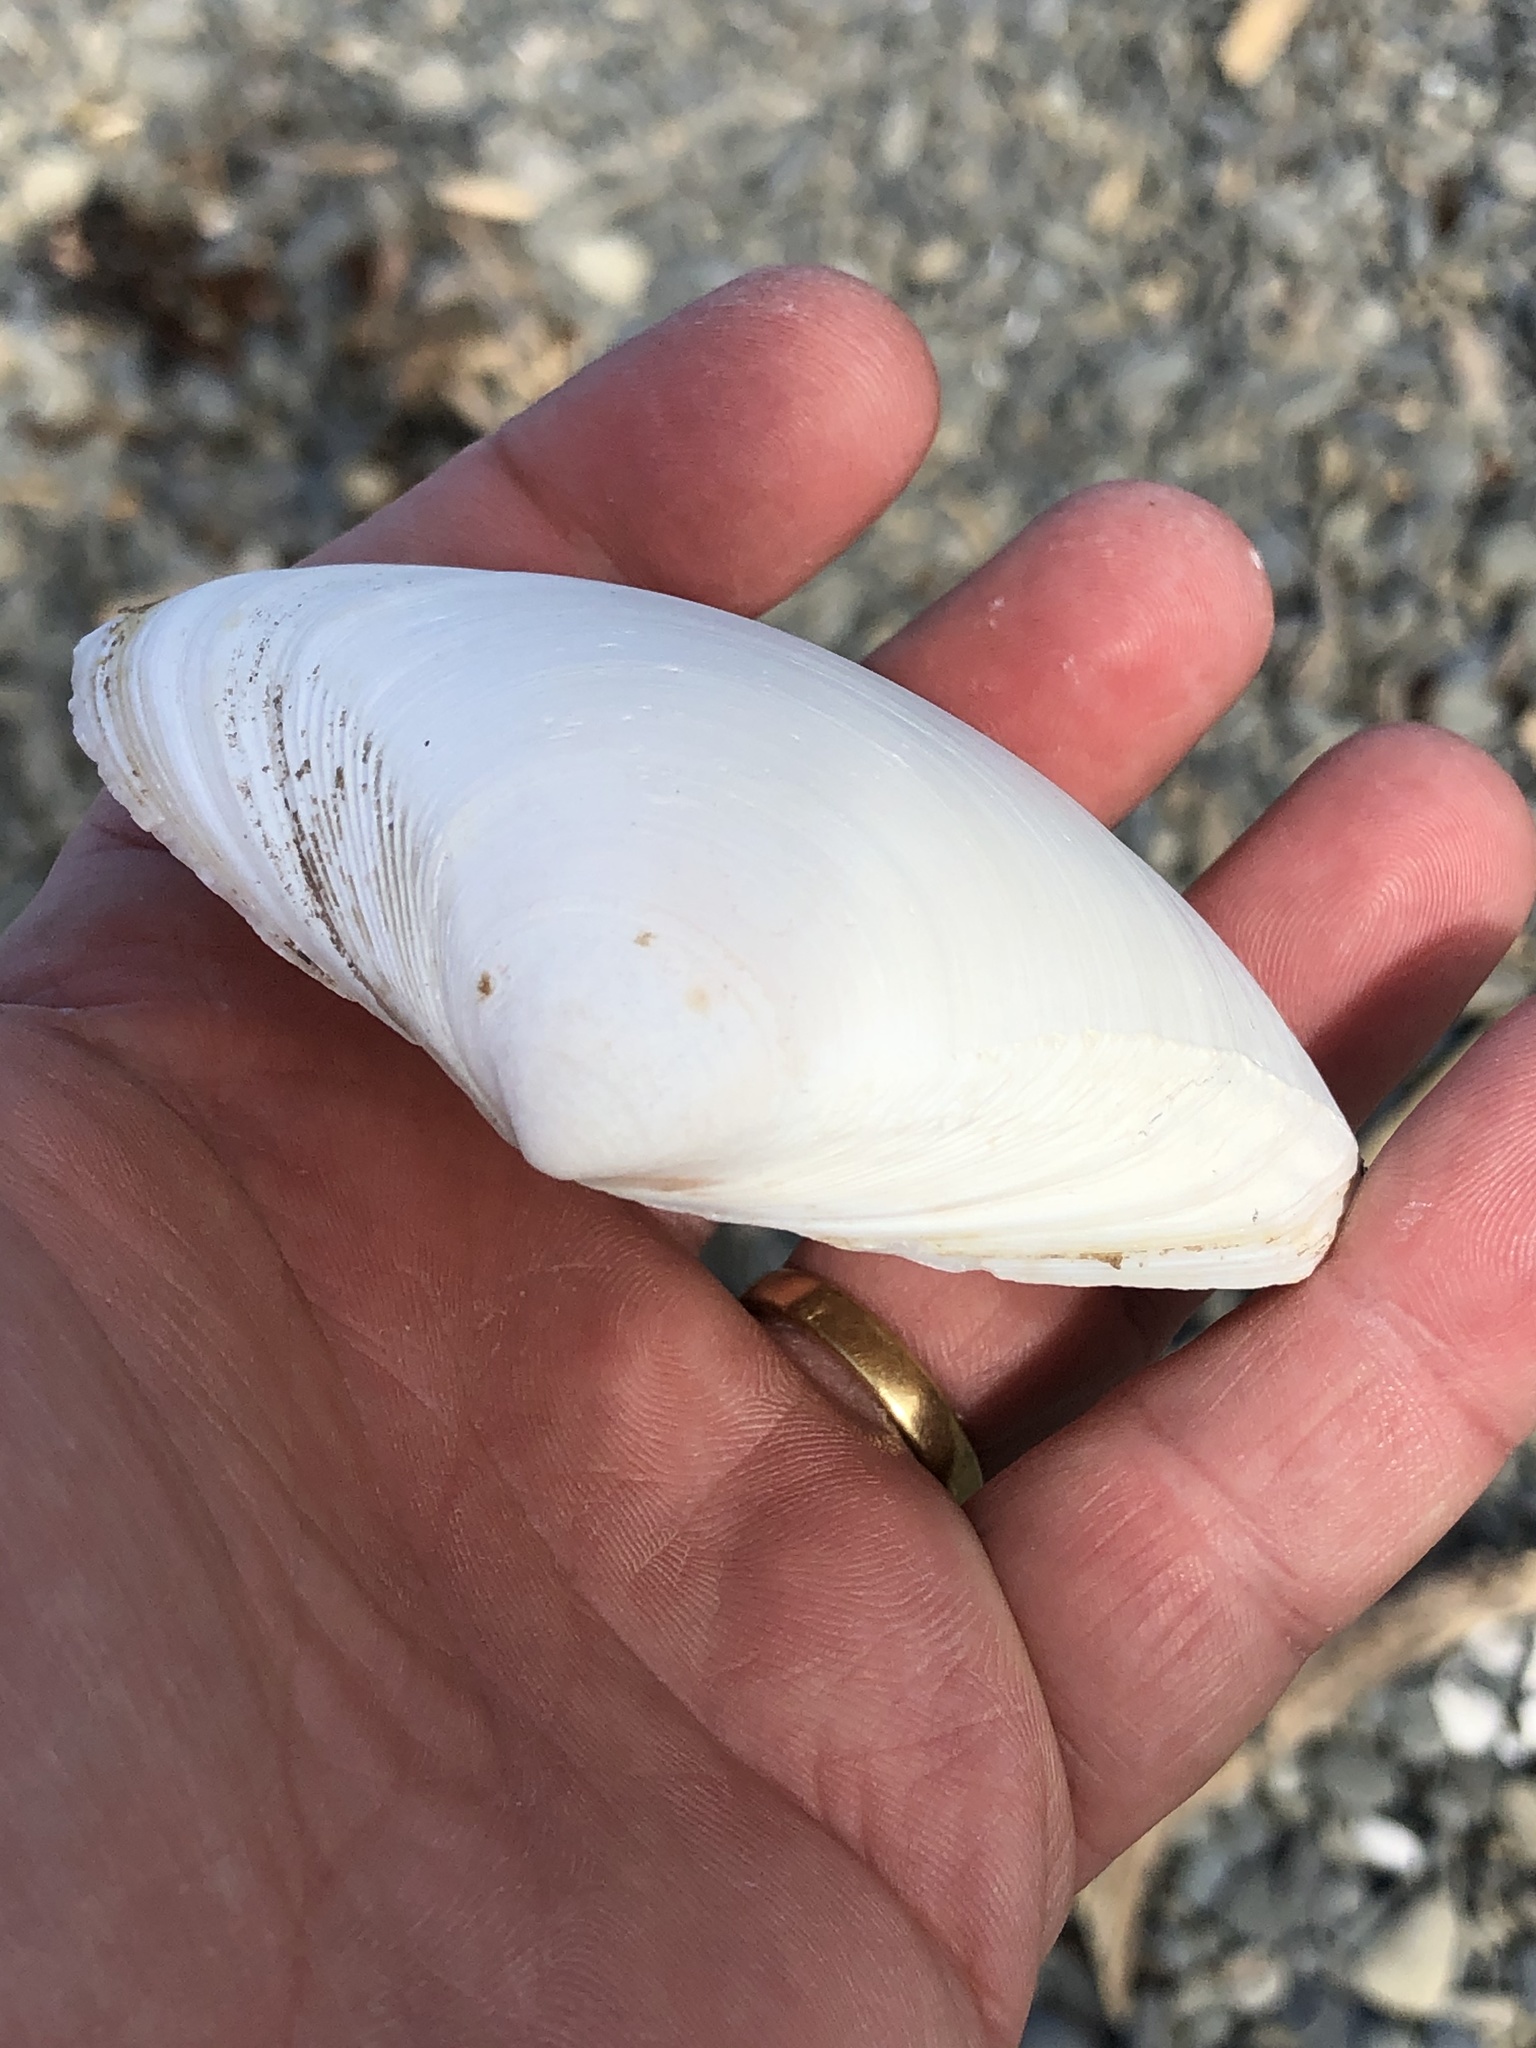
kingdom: Animalia
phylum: Mollusca
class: Bivalvia
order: Venerida
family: Mactridae
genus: Spisula
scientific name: Spisula murchisoni
